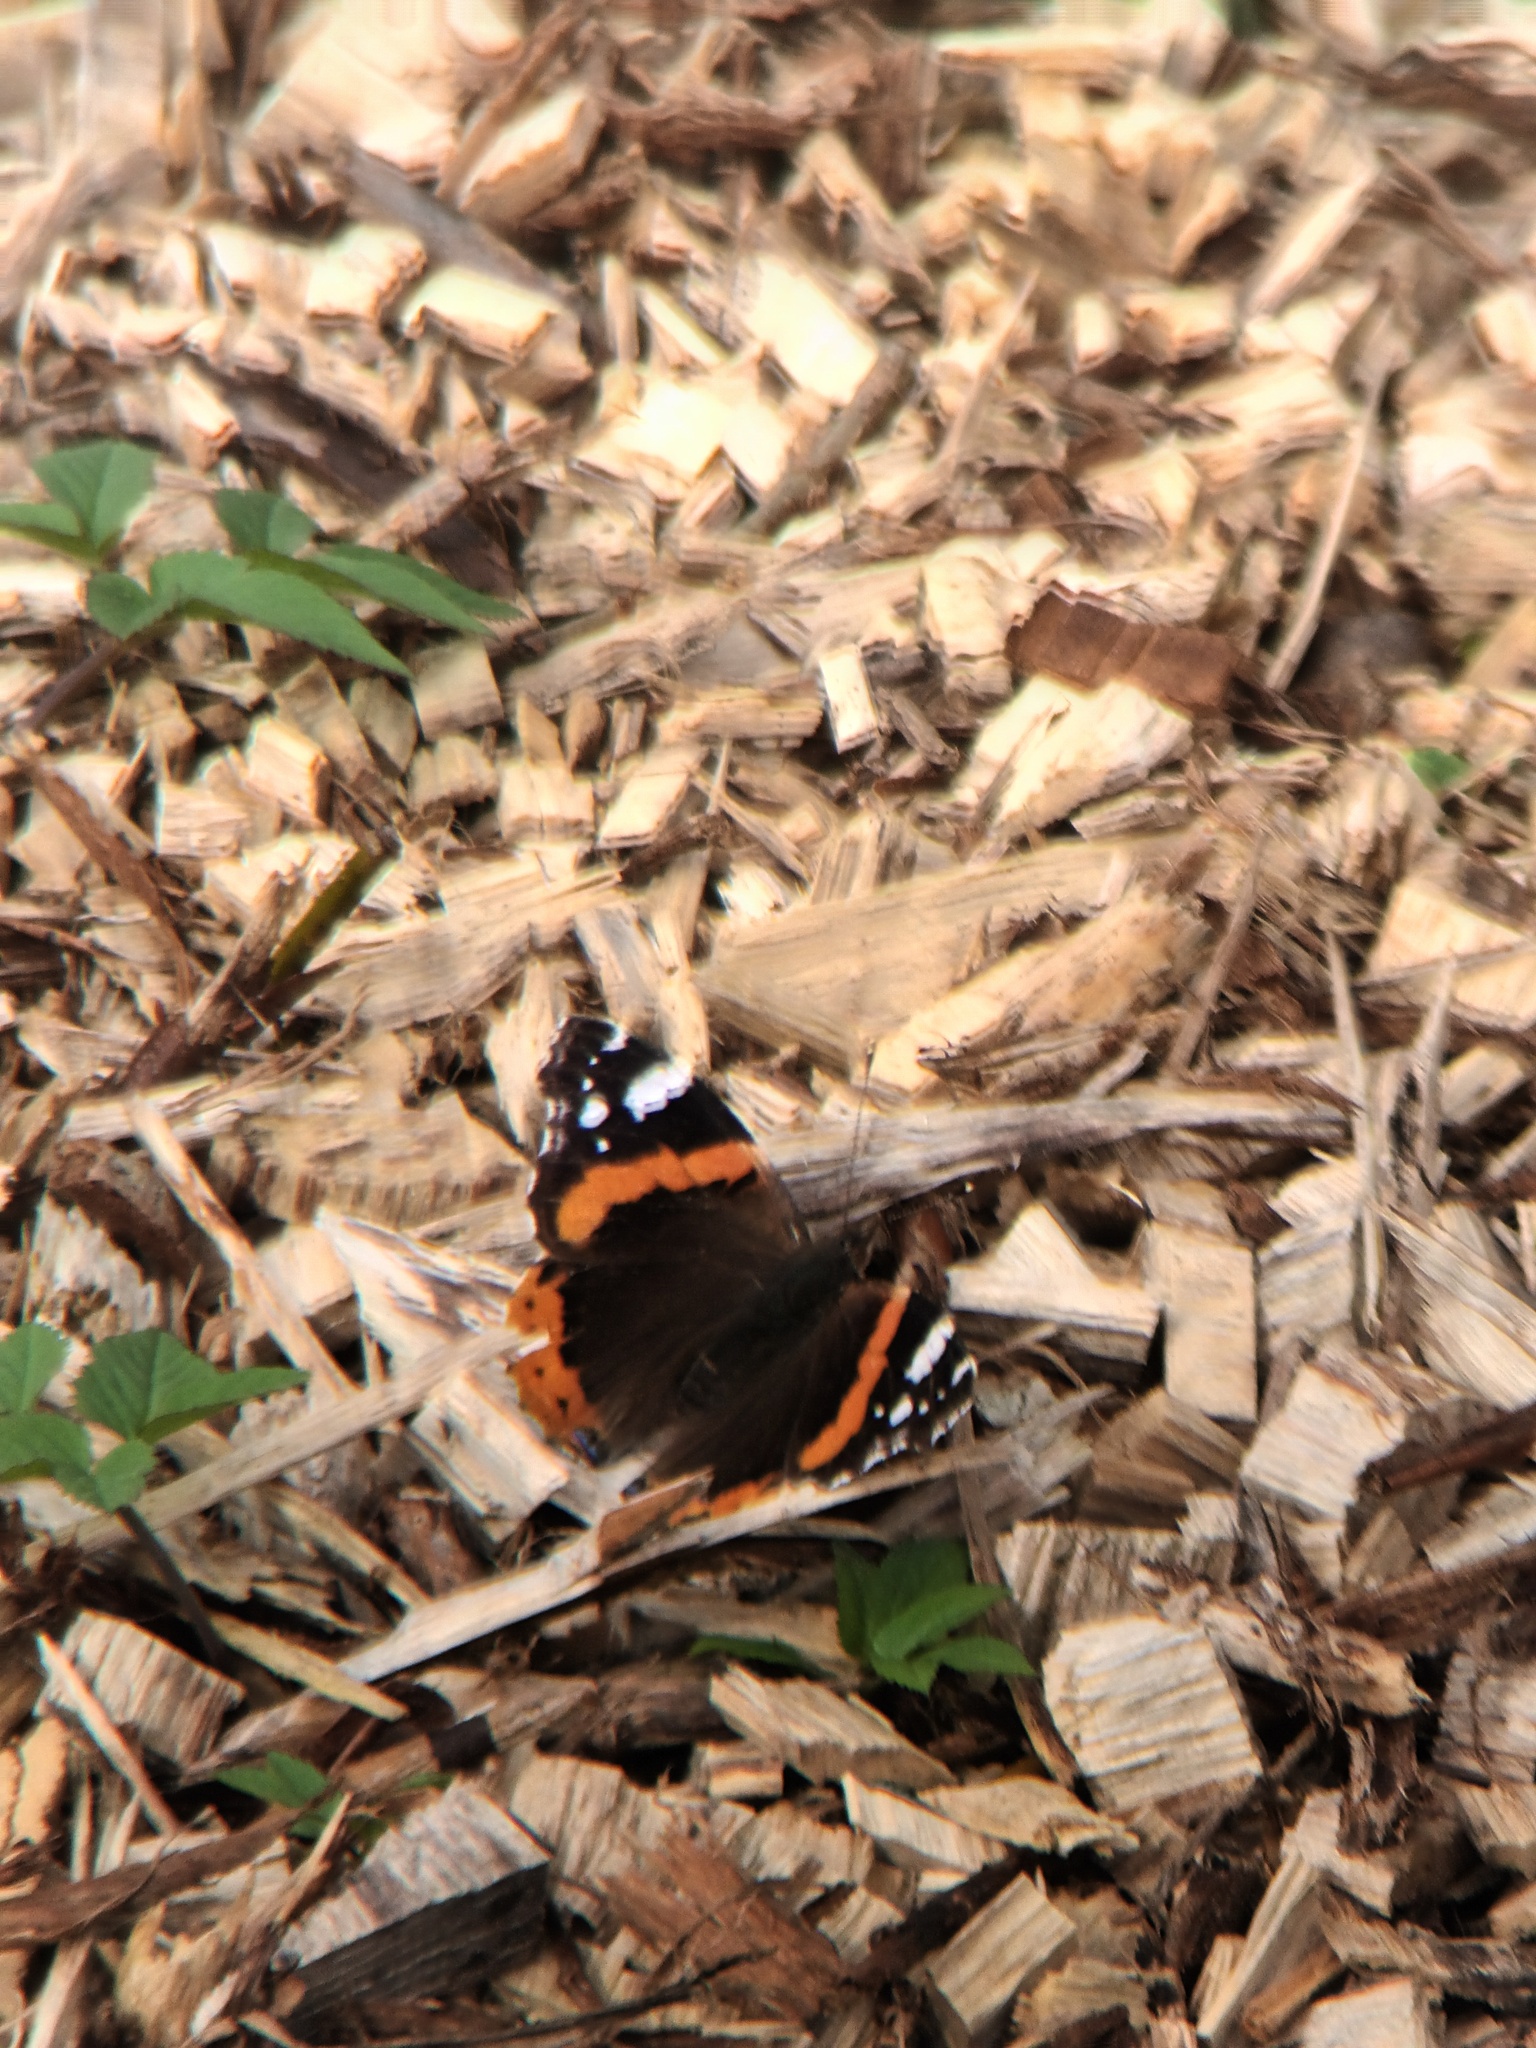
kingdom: Animalia
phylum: Arthropoda
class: Insecta
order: Lepidoptera
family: Nymphalidae
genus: Vanessa
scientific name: Vanessa atalanta
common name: Red admiral
